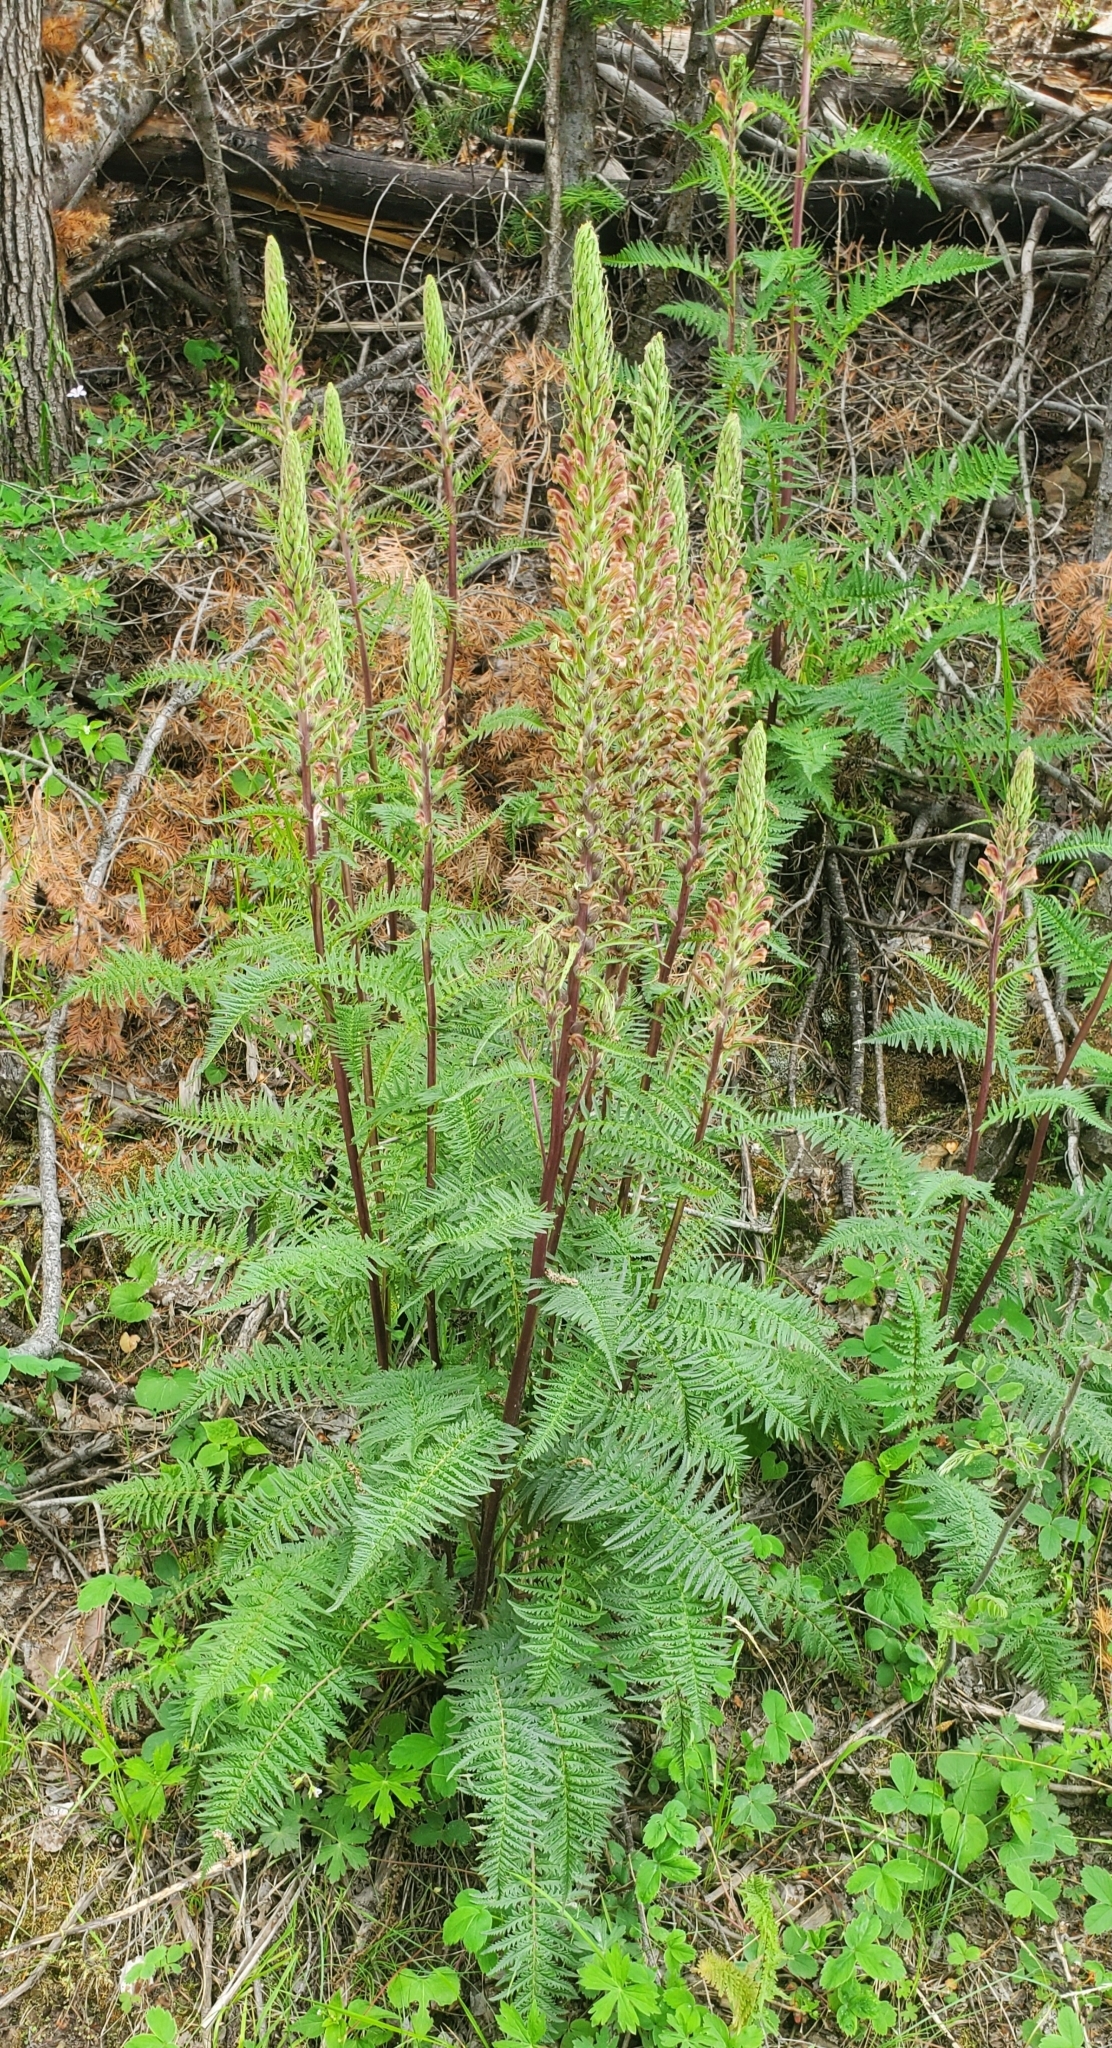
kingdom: Plantae
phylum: Tracheophyta
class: Magnoliopsida
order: Lamiales
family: Orobanchaceae
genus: Pedicularis
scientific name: Pedicularis procera
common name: Gray's lousewort
